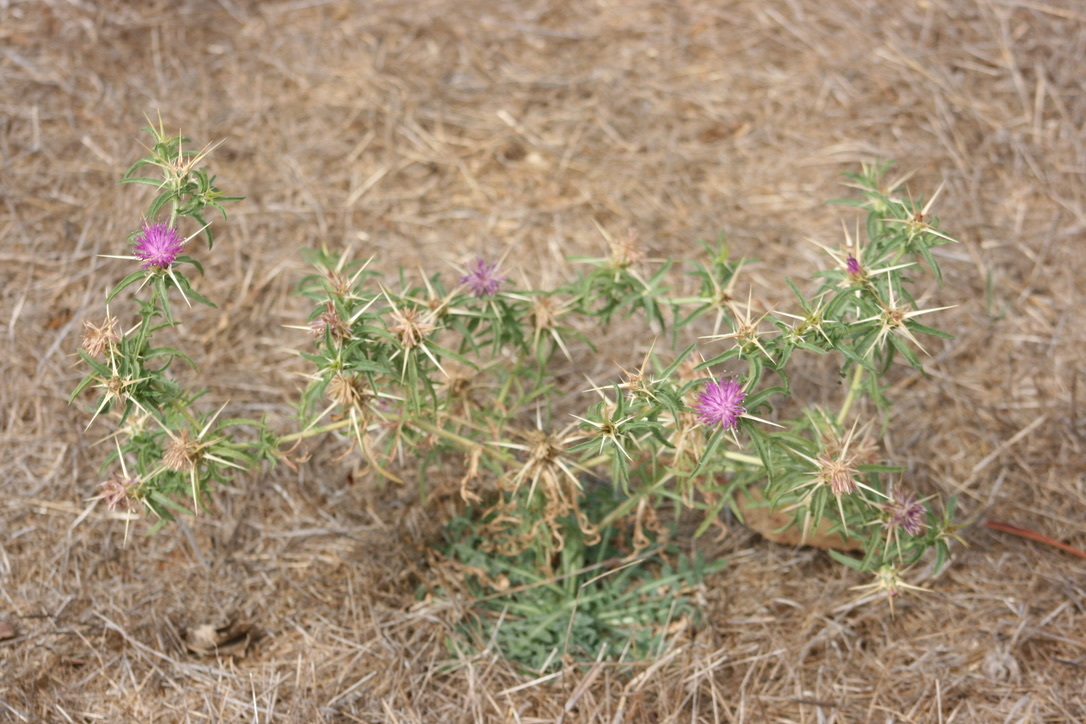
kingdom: Plantae
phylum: Tracheophyta
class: Magnoliopsida
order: Asterales
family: Asteraceae
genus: Centaurea
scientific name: Centaurea calcitrapa
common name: Red star-thistle
